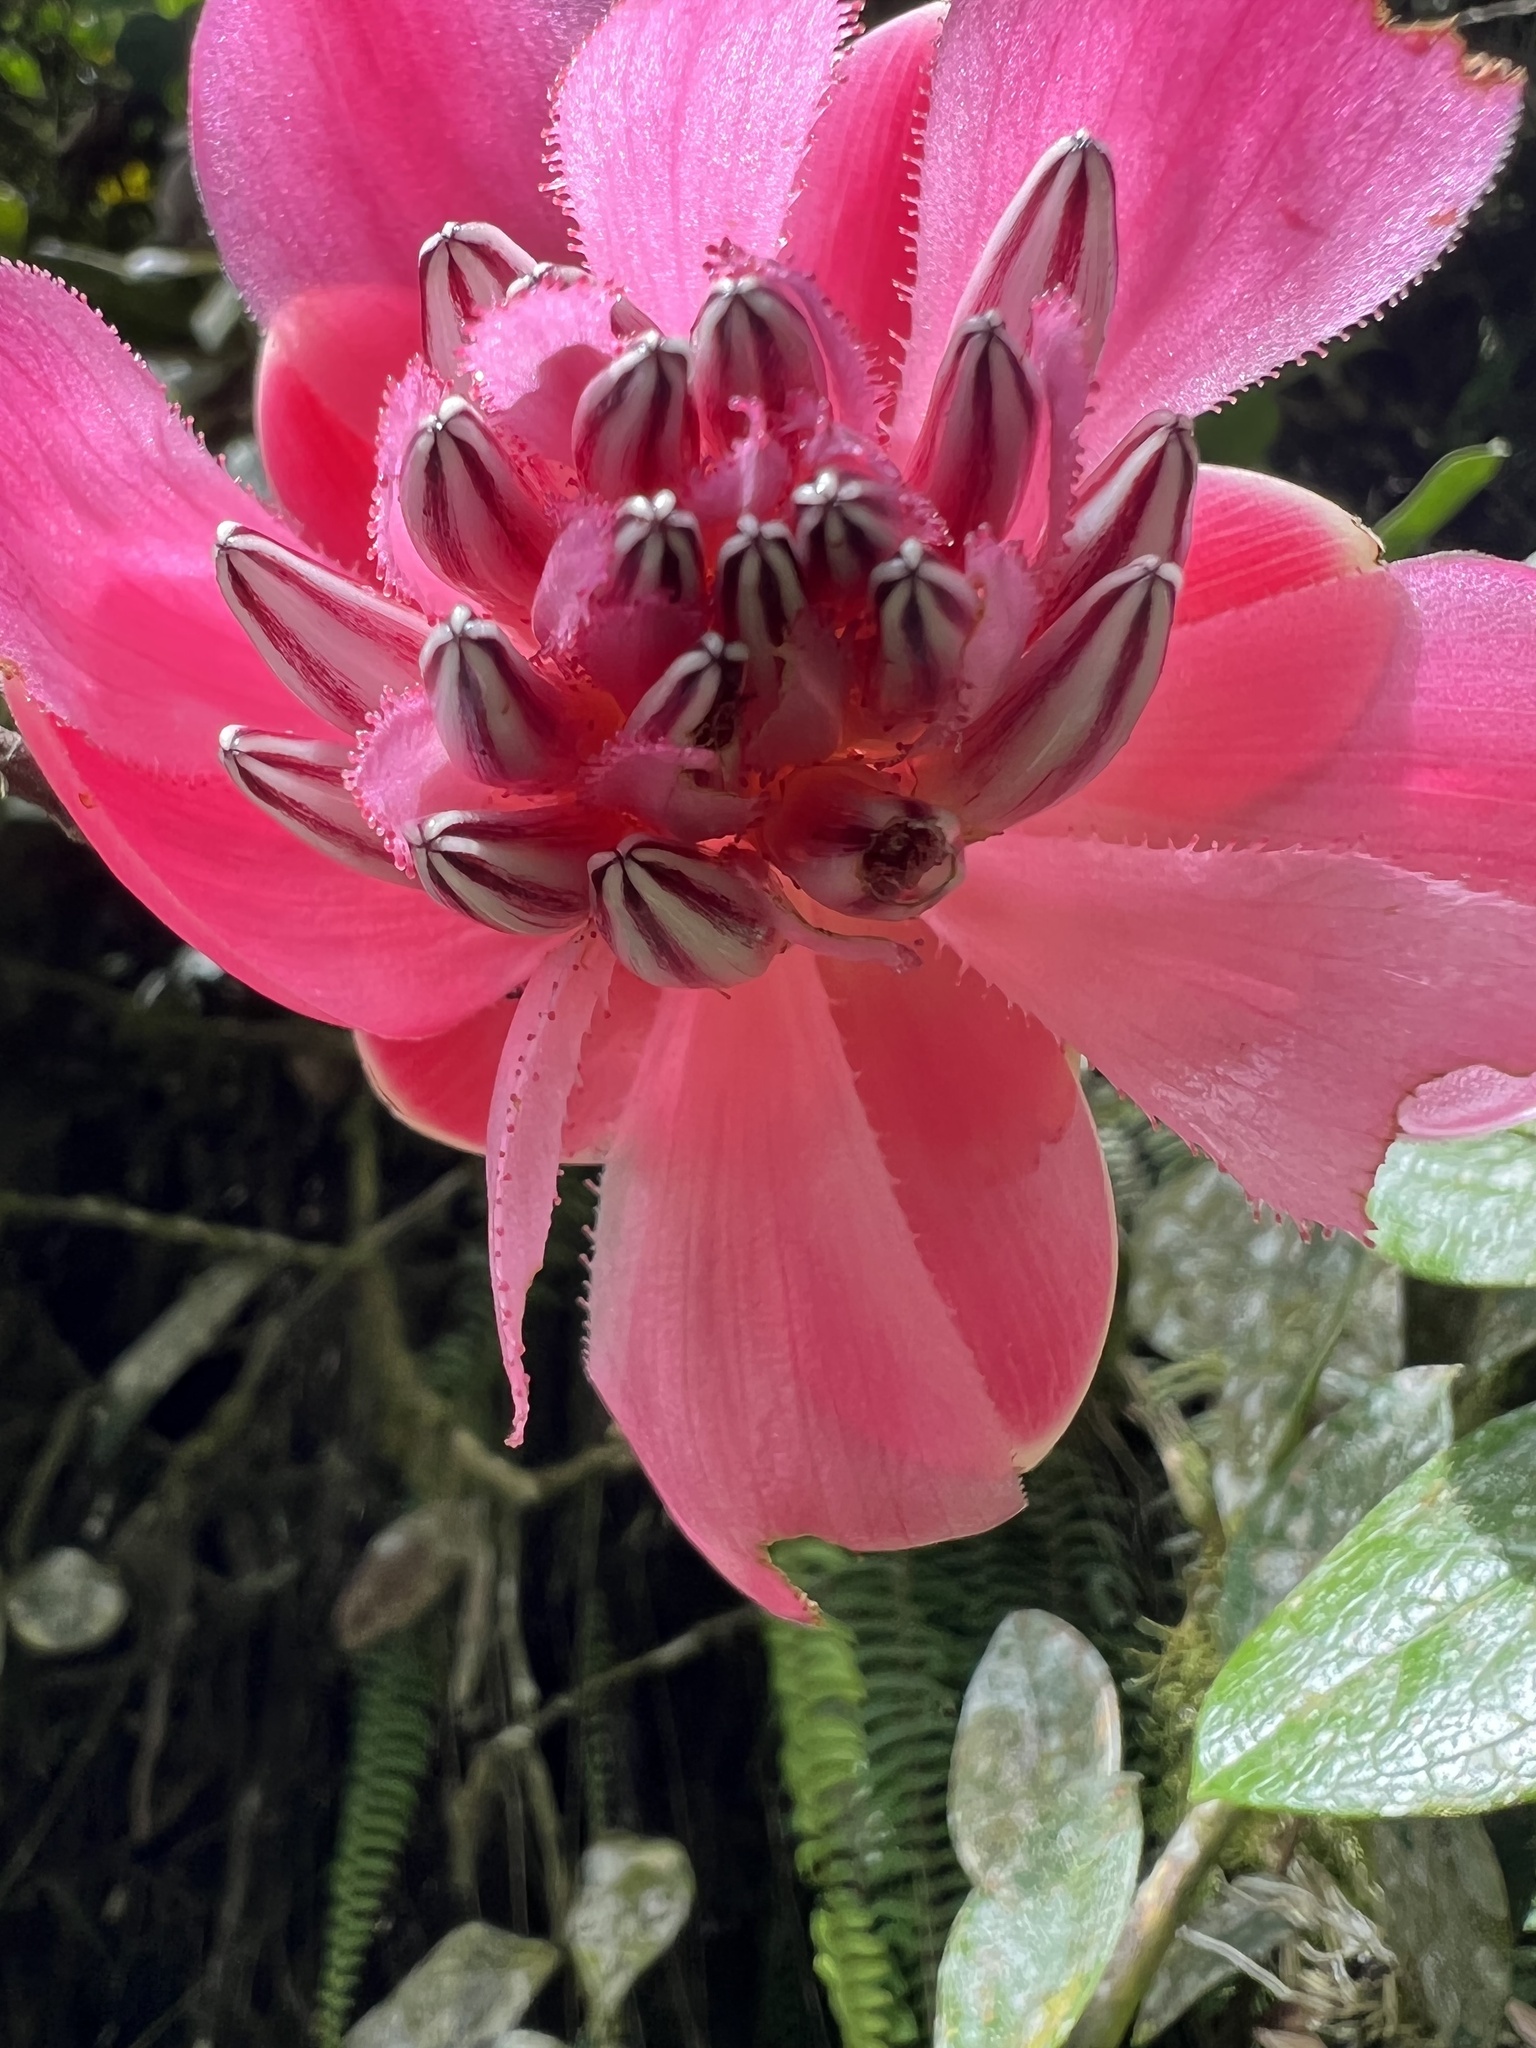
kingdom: Plantae
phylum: Tracheophyta
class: Magnoliopsida
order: Ericales
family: Ericaceae
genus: Cavendishia
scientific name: Cavendishia adenophora
